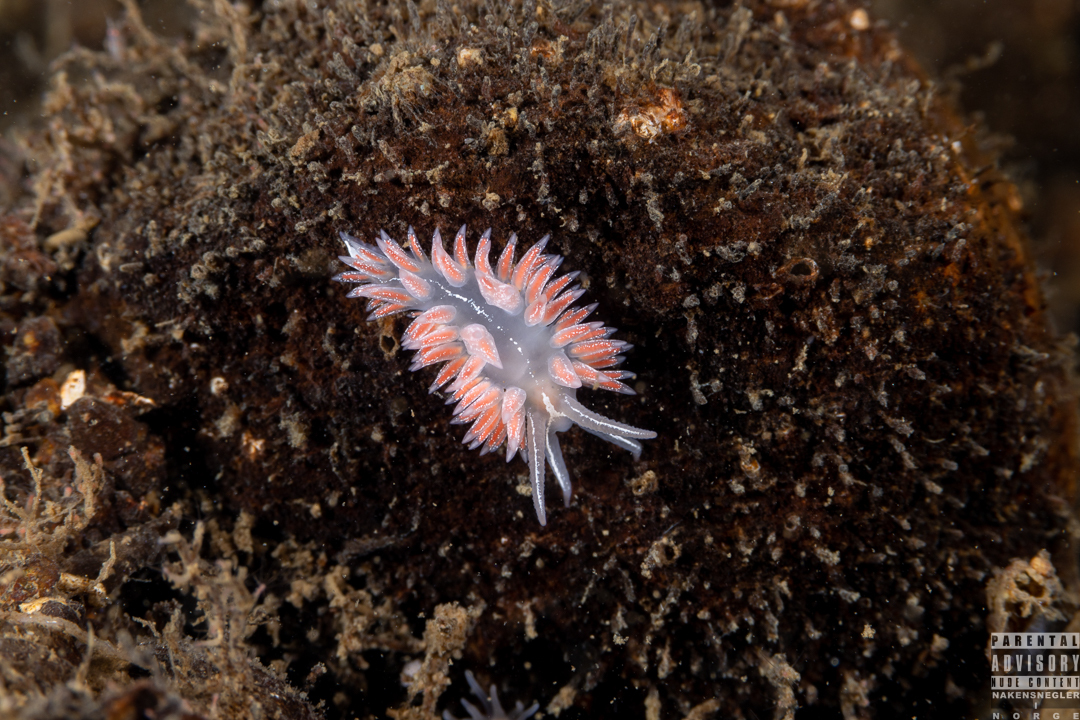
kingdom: Animalia
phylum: Mollusca
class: Gastropoda
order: Nudibranchia
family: Coryphellidae
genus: Coryphella
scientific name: Coryphella chriskaugei
